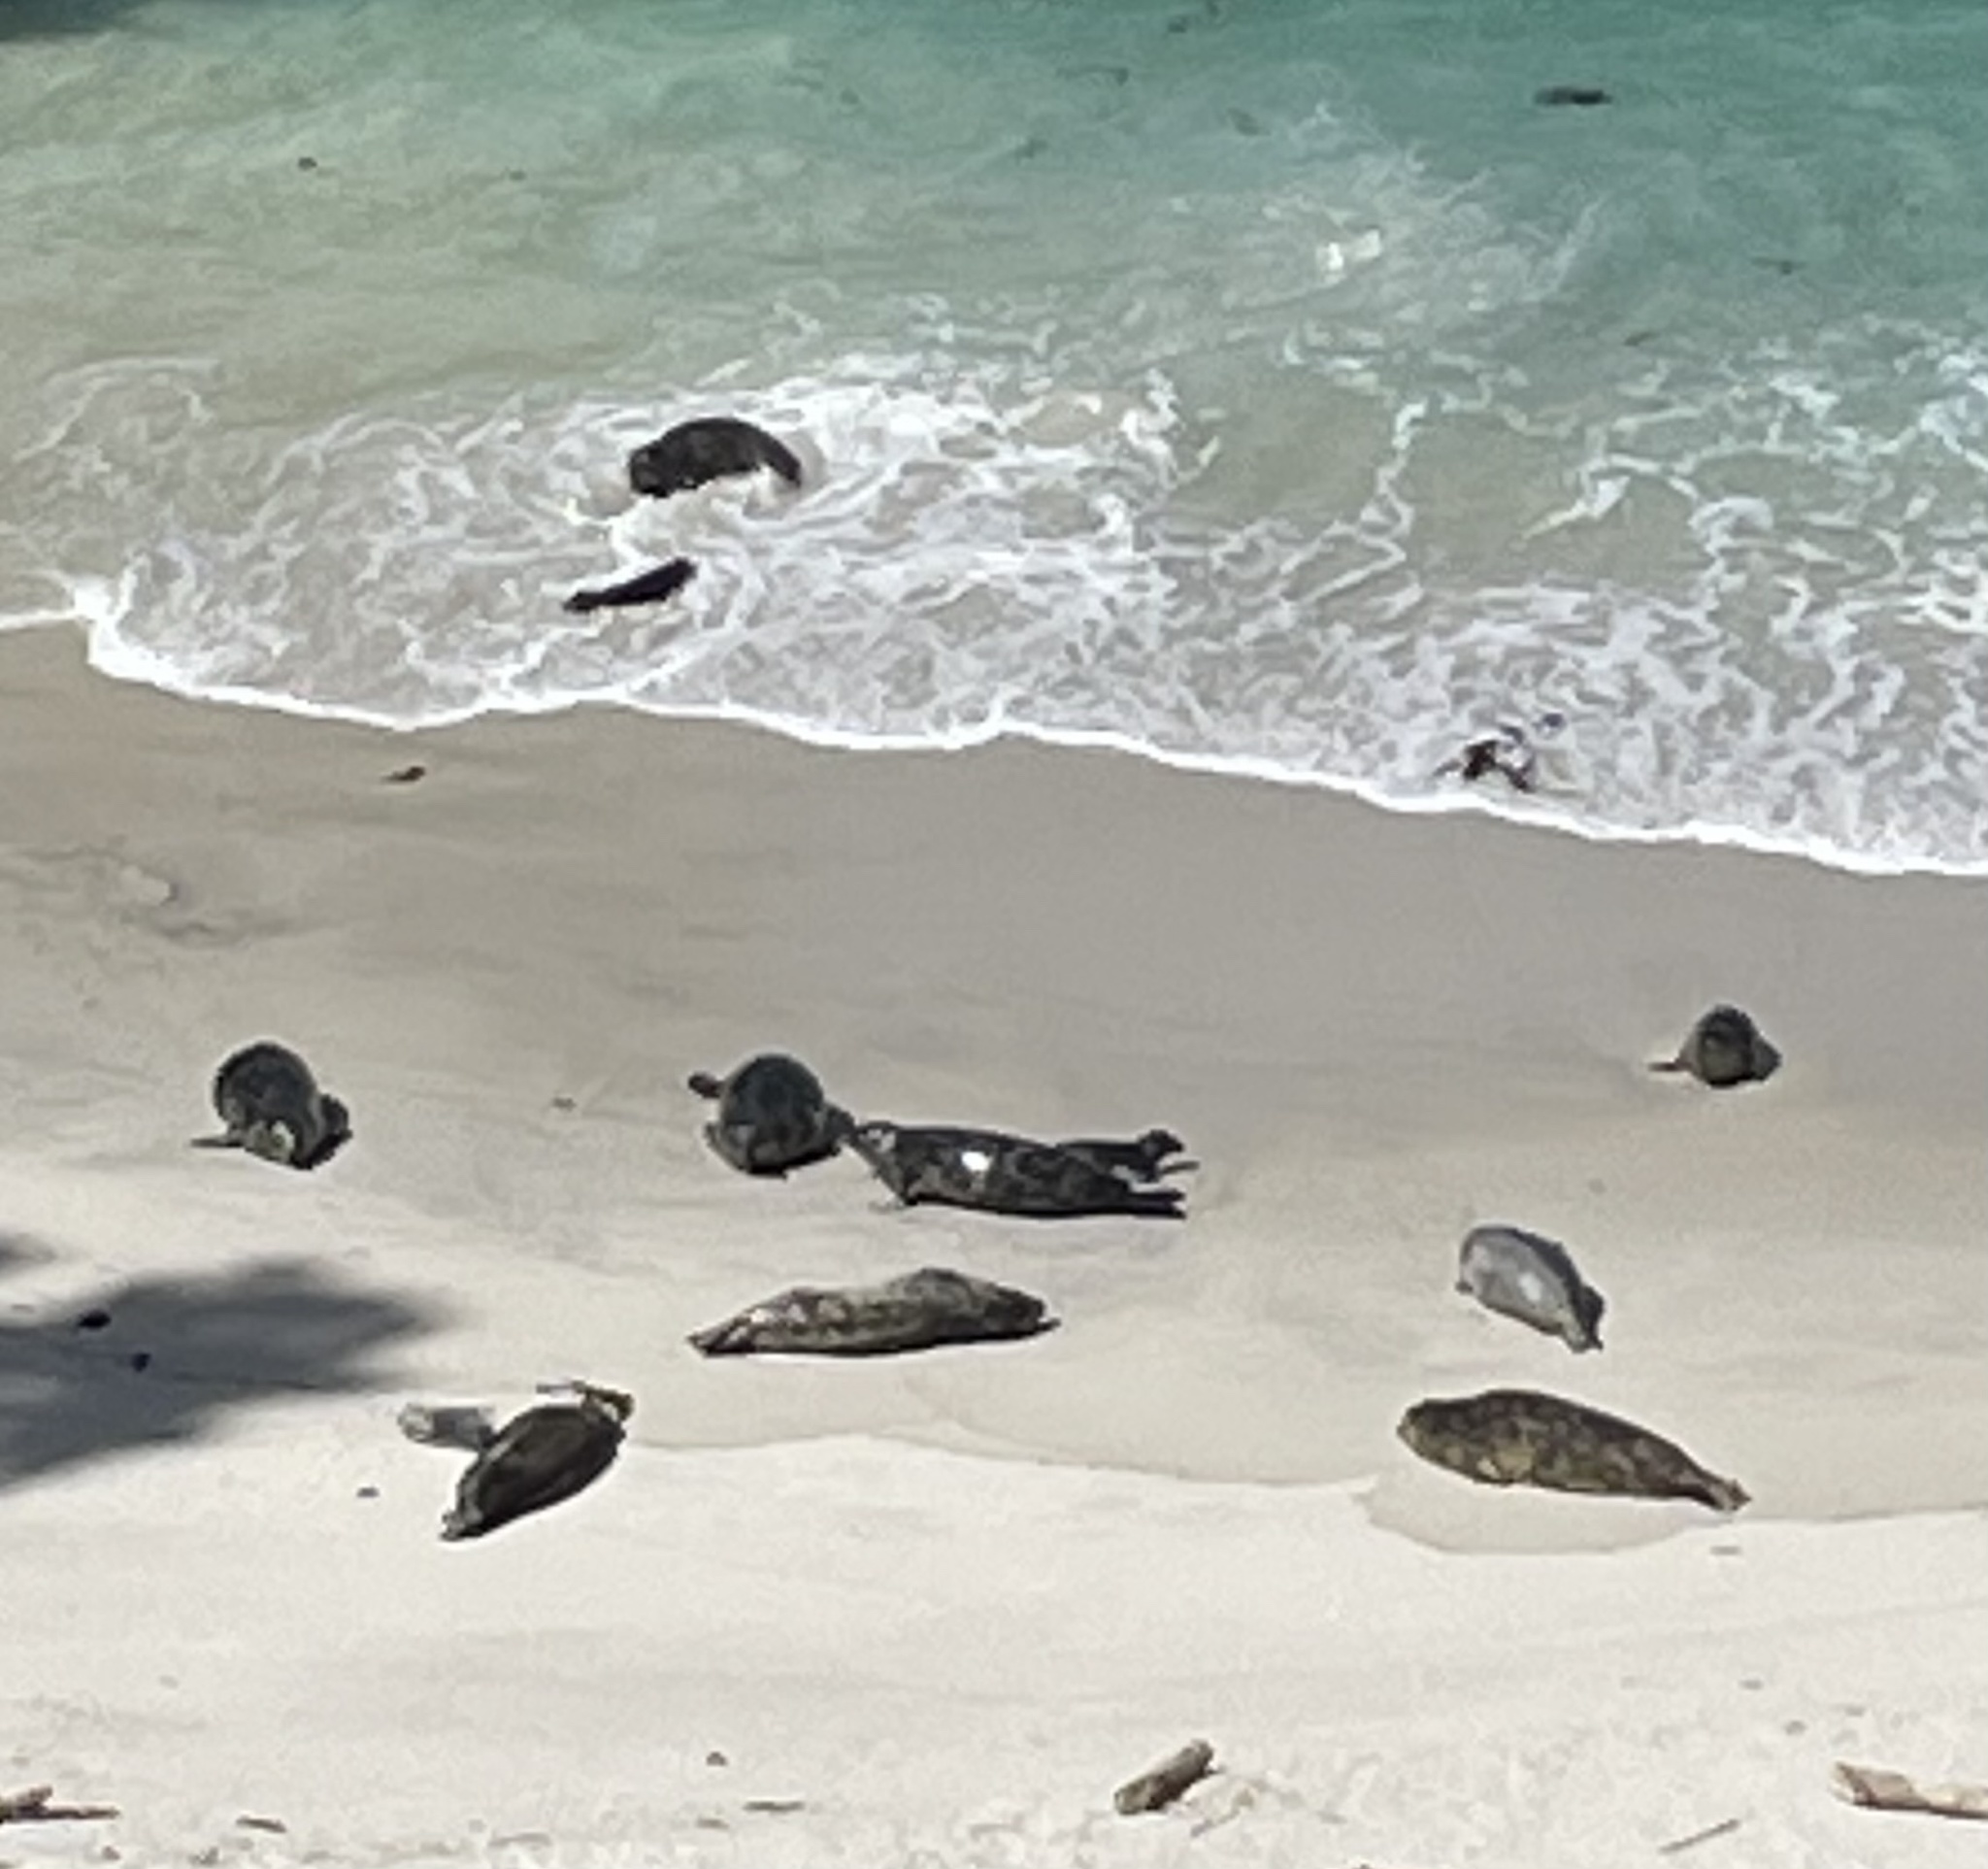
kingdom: Animalia
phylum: Chordata
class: Mammalia
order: Carnivora
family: Phocidae
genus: Phoca
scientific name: Phoca vitulina
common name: Harbor seal
